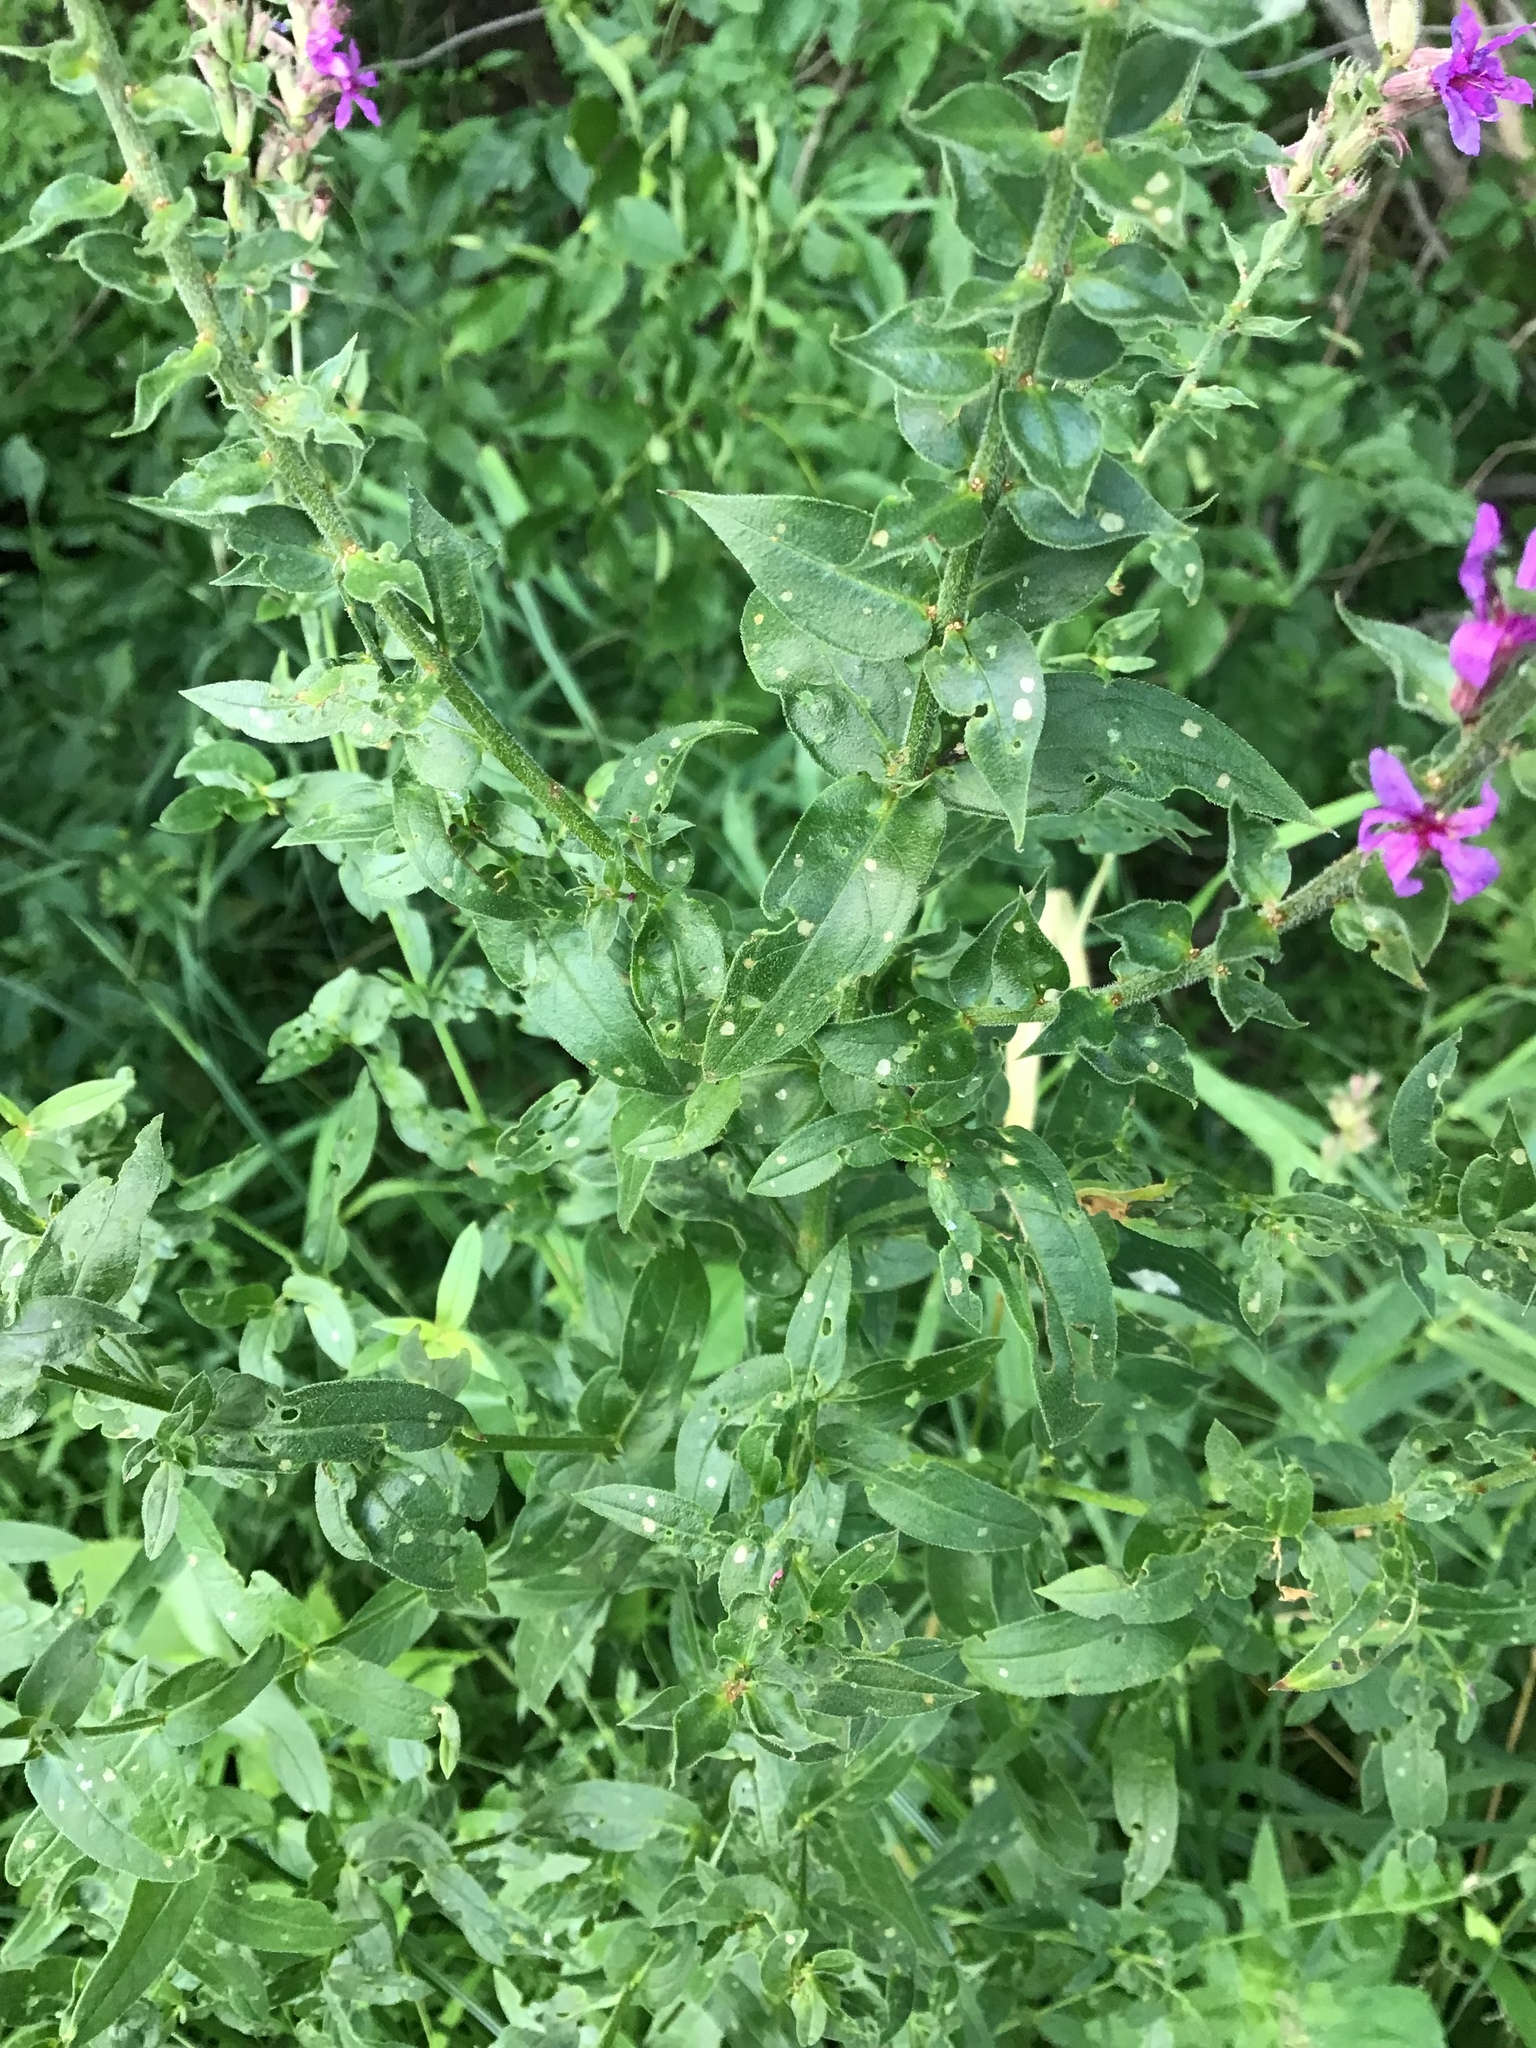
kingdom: Plantae
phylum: Tracheophyta
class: Magnoliopsida
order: Myrtales
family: Lythraceae
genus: Lythrum
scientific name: Lythrum salicaria
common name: Purple loosestrife
